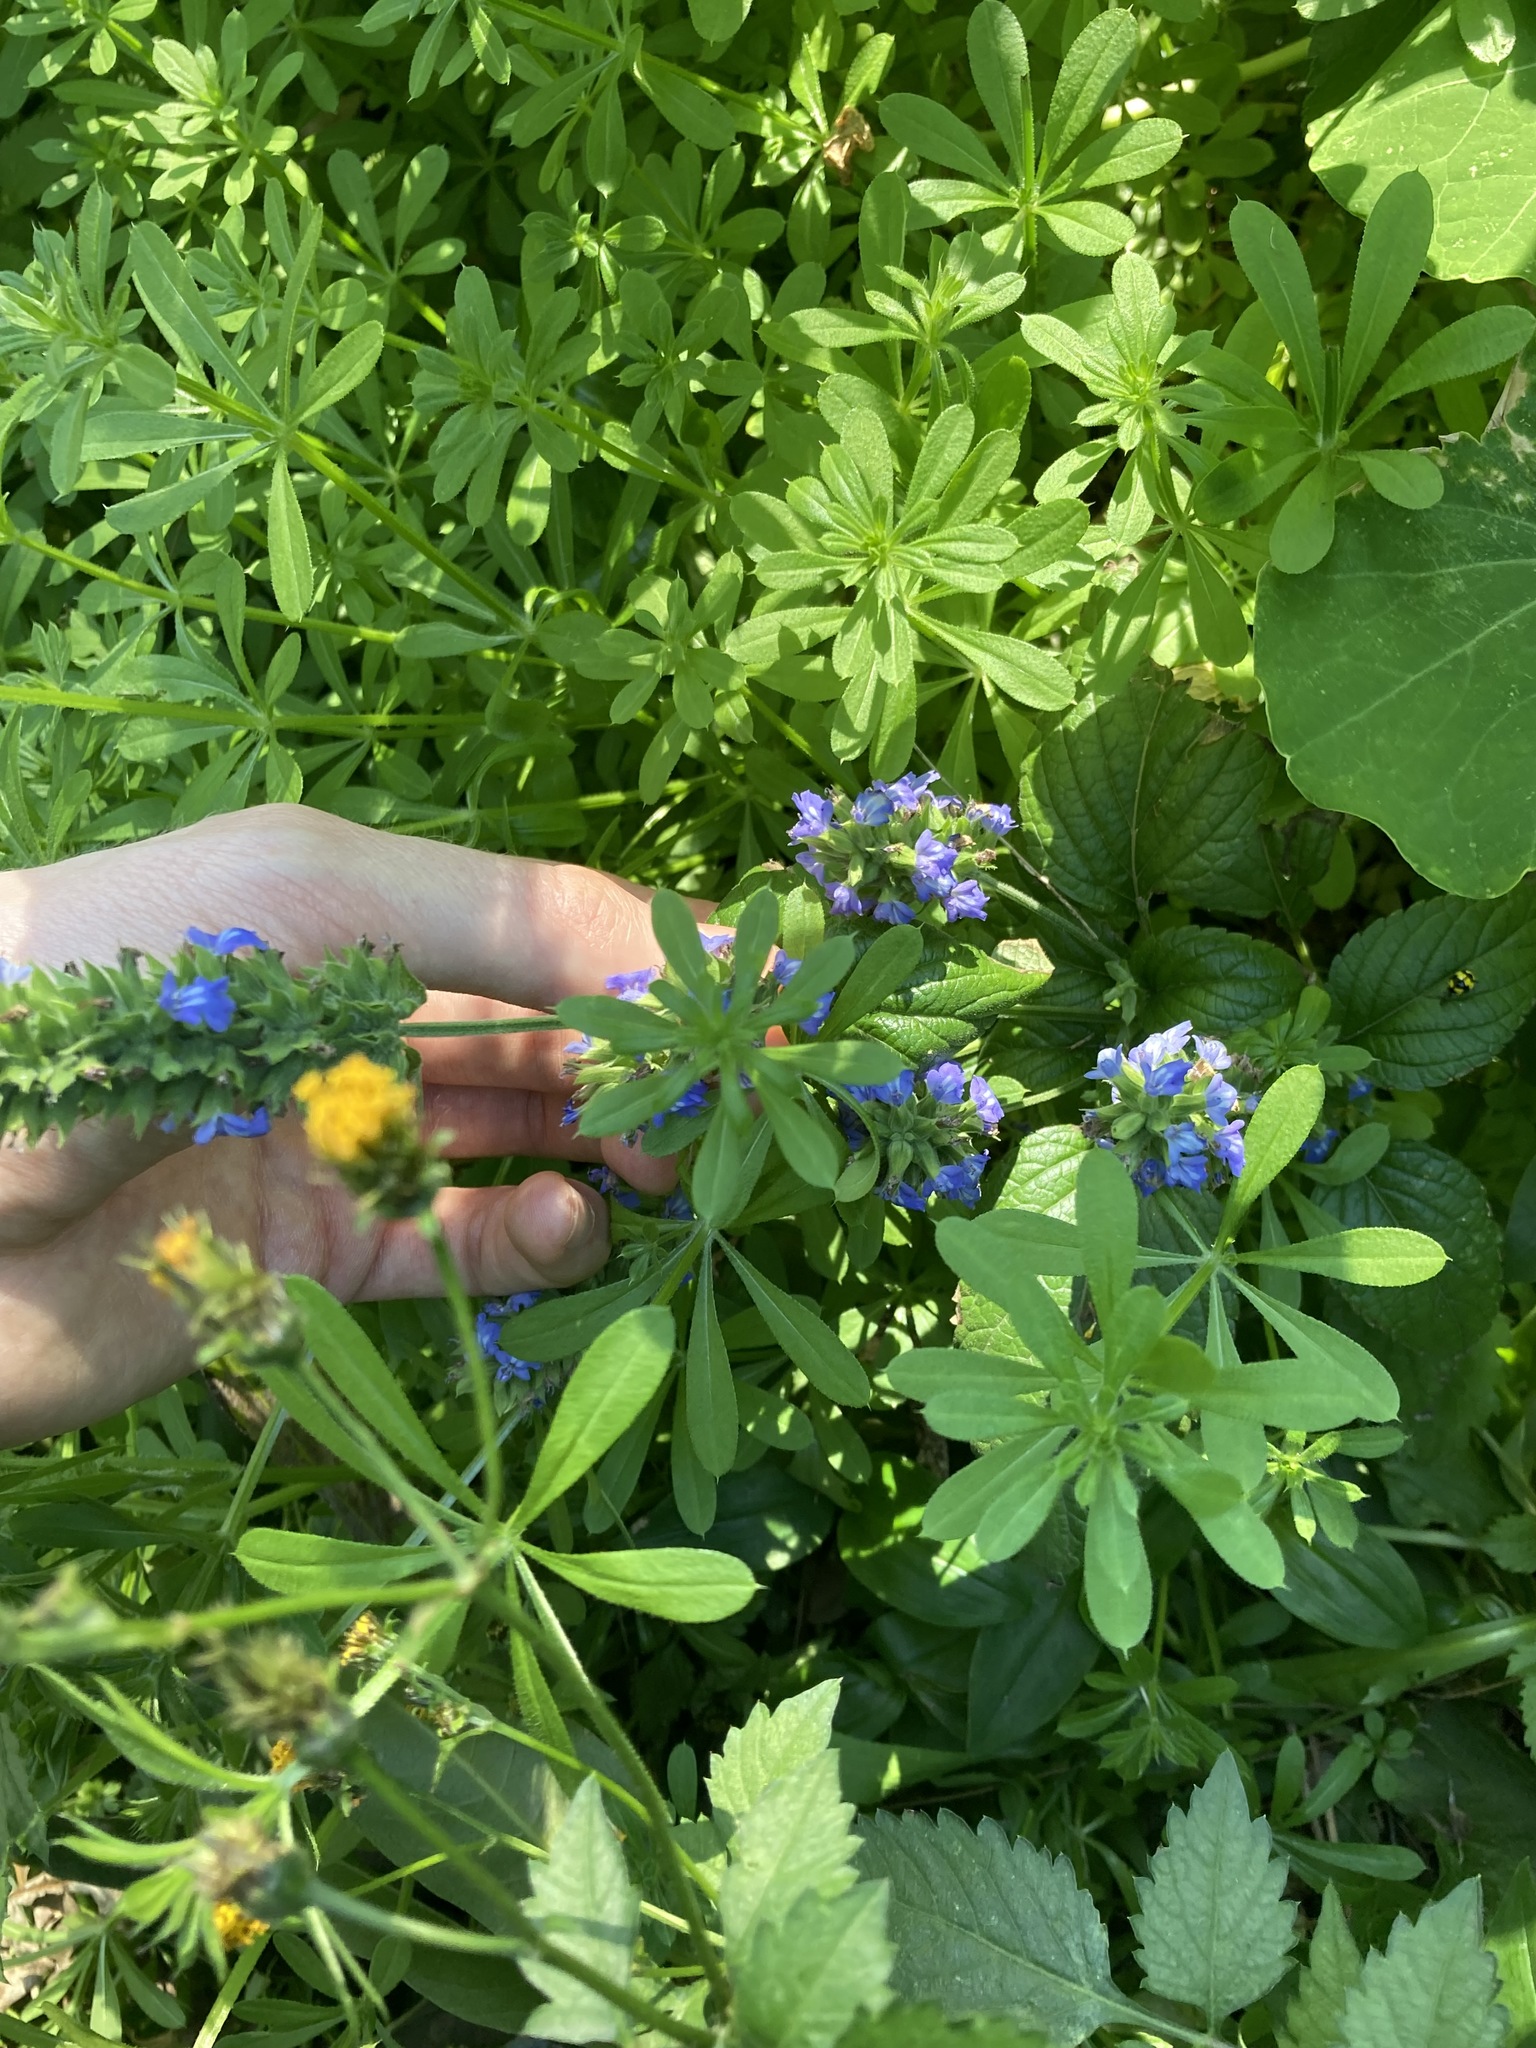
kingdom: Plantae
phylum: Tracheophyta
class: Magnoliopsida
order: Lamiales
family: Lamiaceae
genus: Salvia
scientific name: Salvia hispanica
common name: Chia
